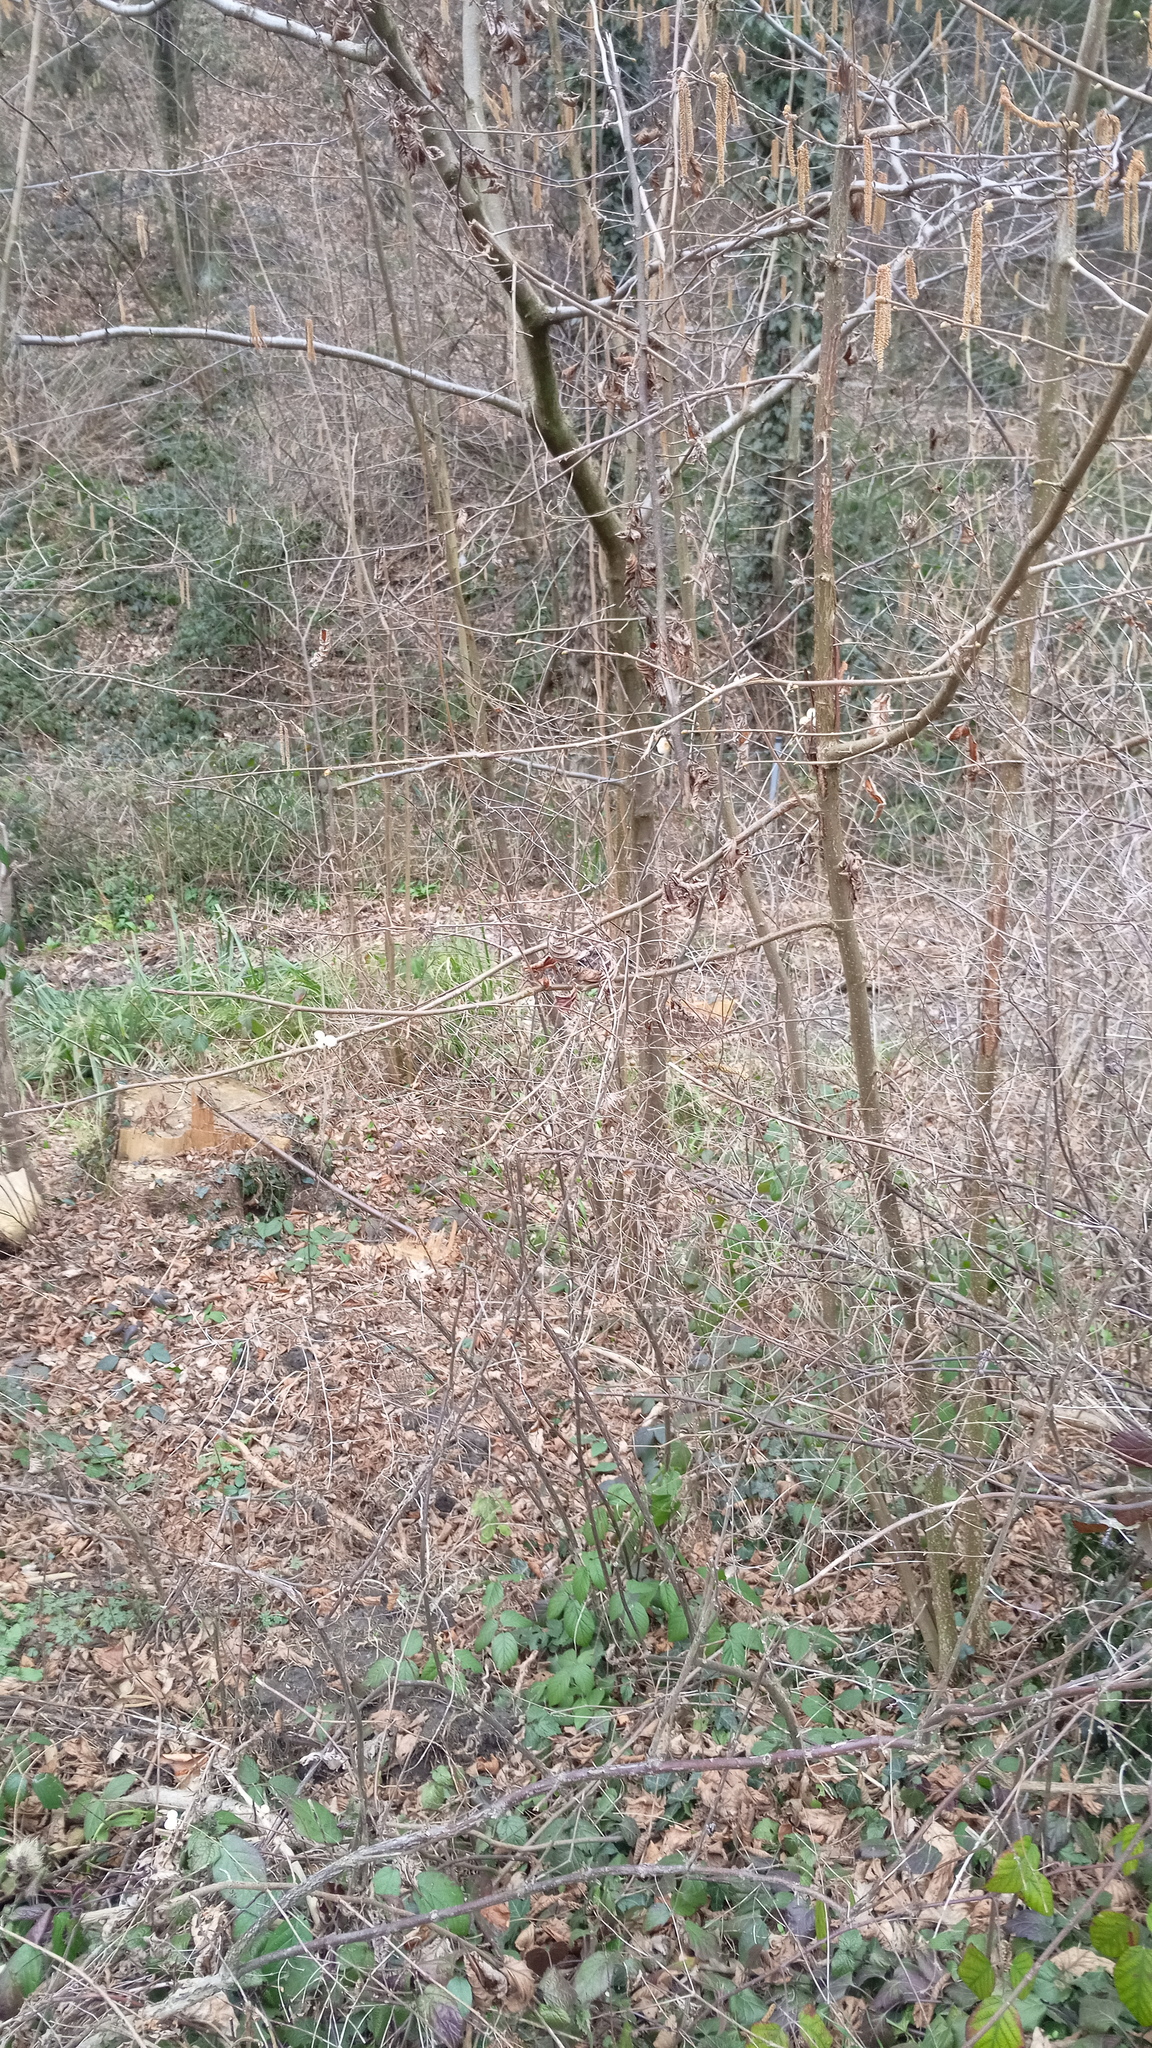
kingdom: Plantae
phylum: Tracheophyta
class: Magnoliopsida
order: Dipsacales
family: Caprifoliaceae
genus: Symphoricarpos
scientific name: Symphoricarpos albus
